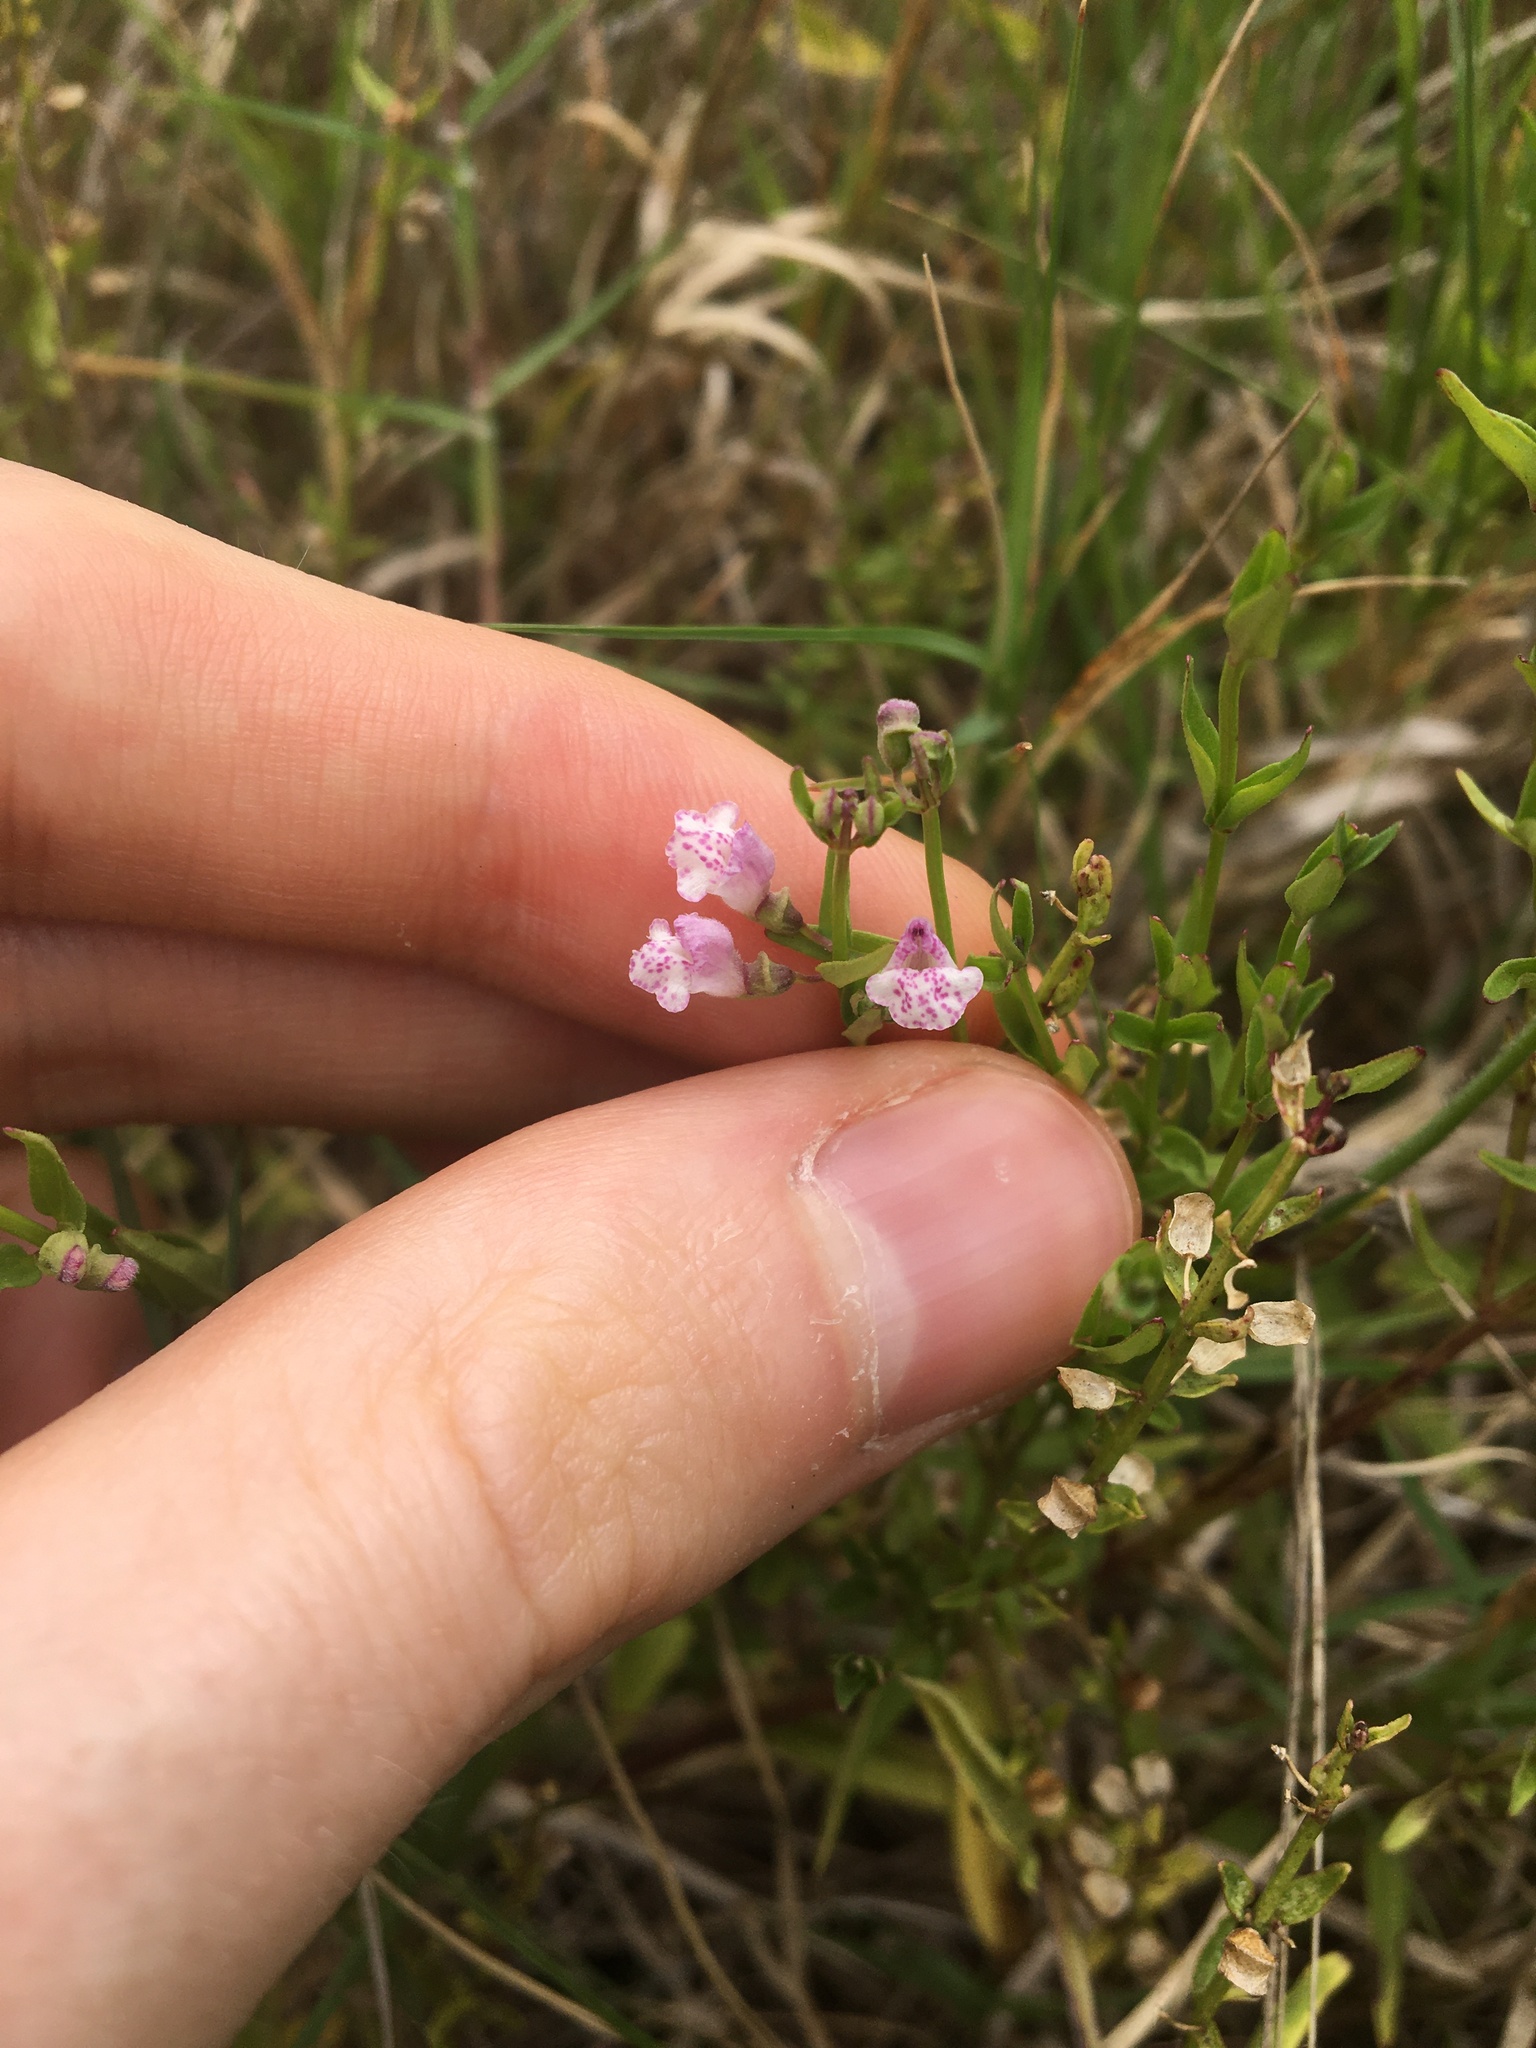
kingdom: Plantae
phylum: Tracheophyta
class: Magnoliopsida
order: Lamiales
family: Lamiaceae
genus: Scutellaria
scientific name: Scutellaria racemosa
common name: South american skullcap
